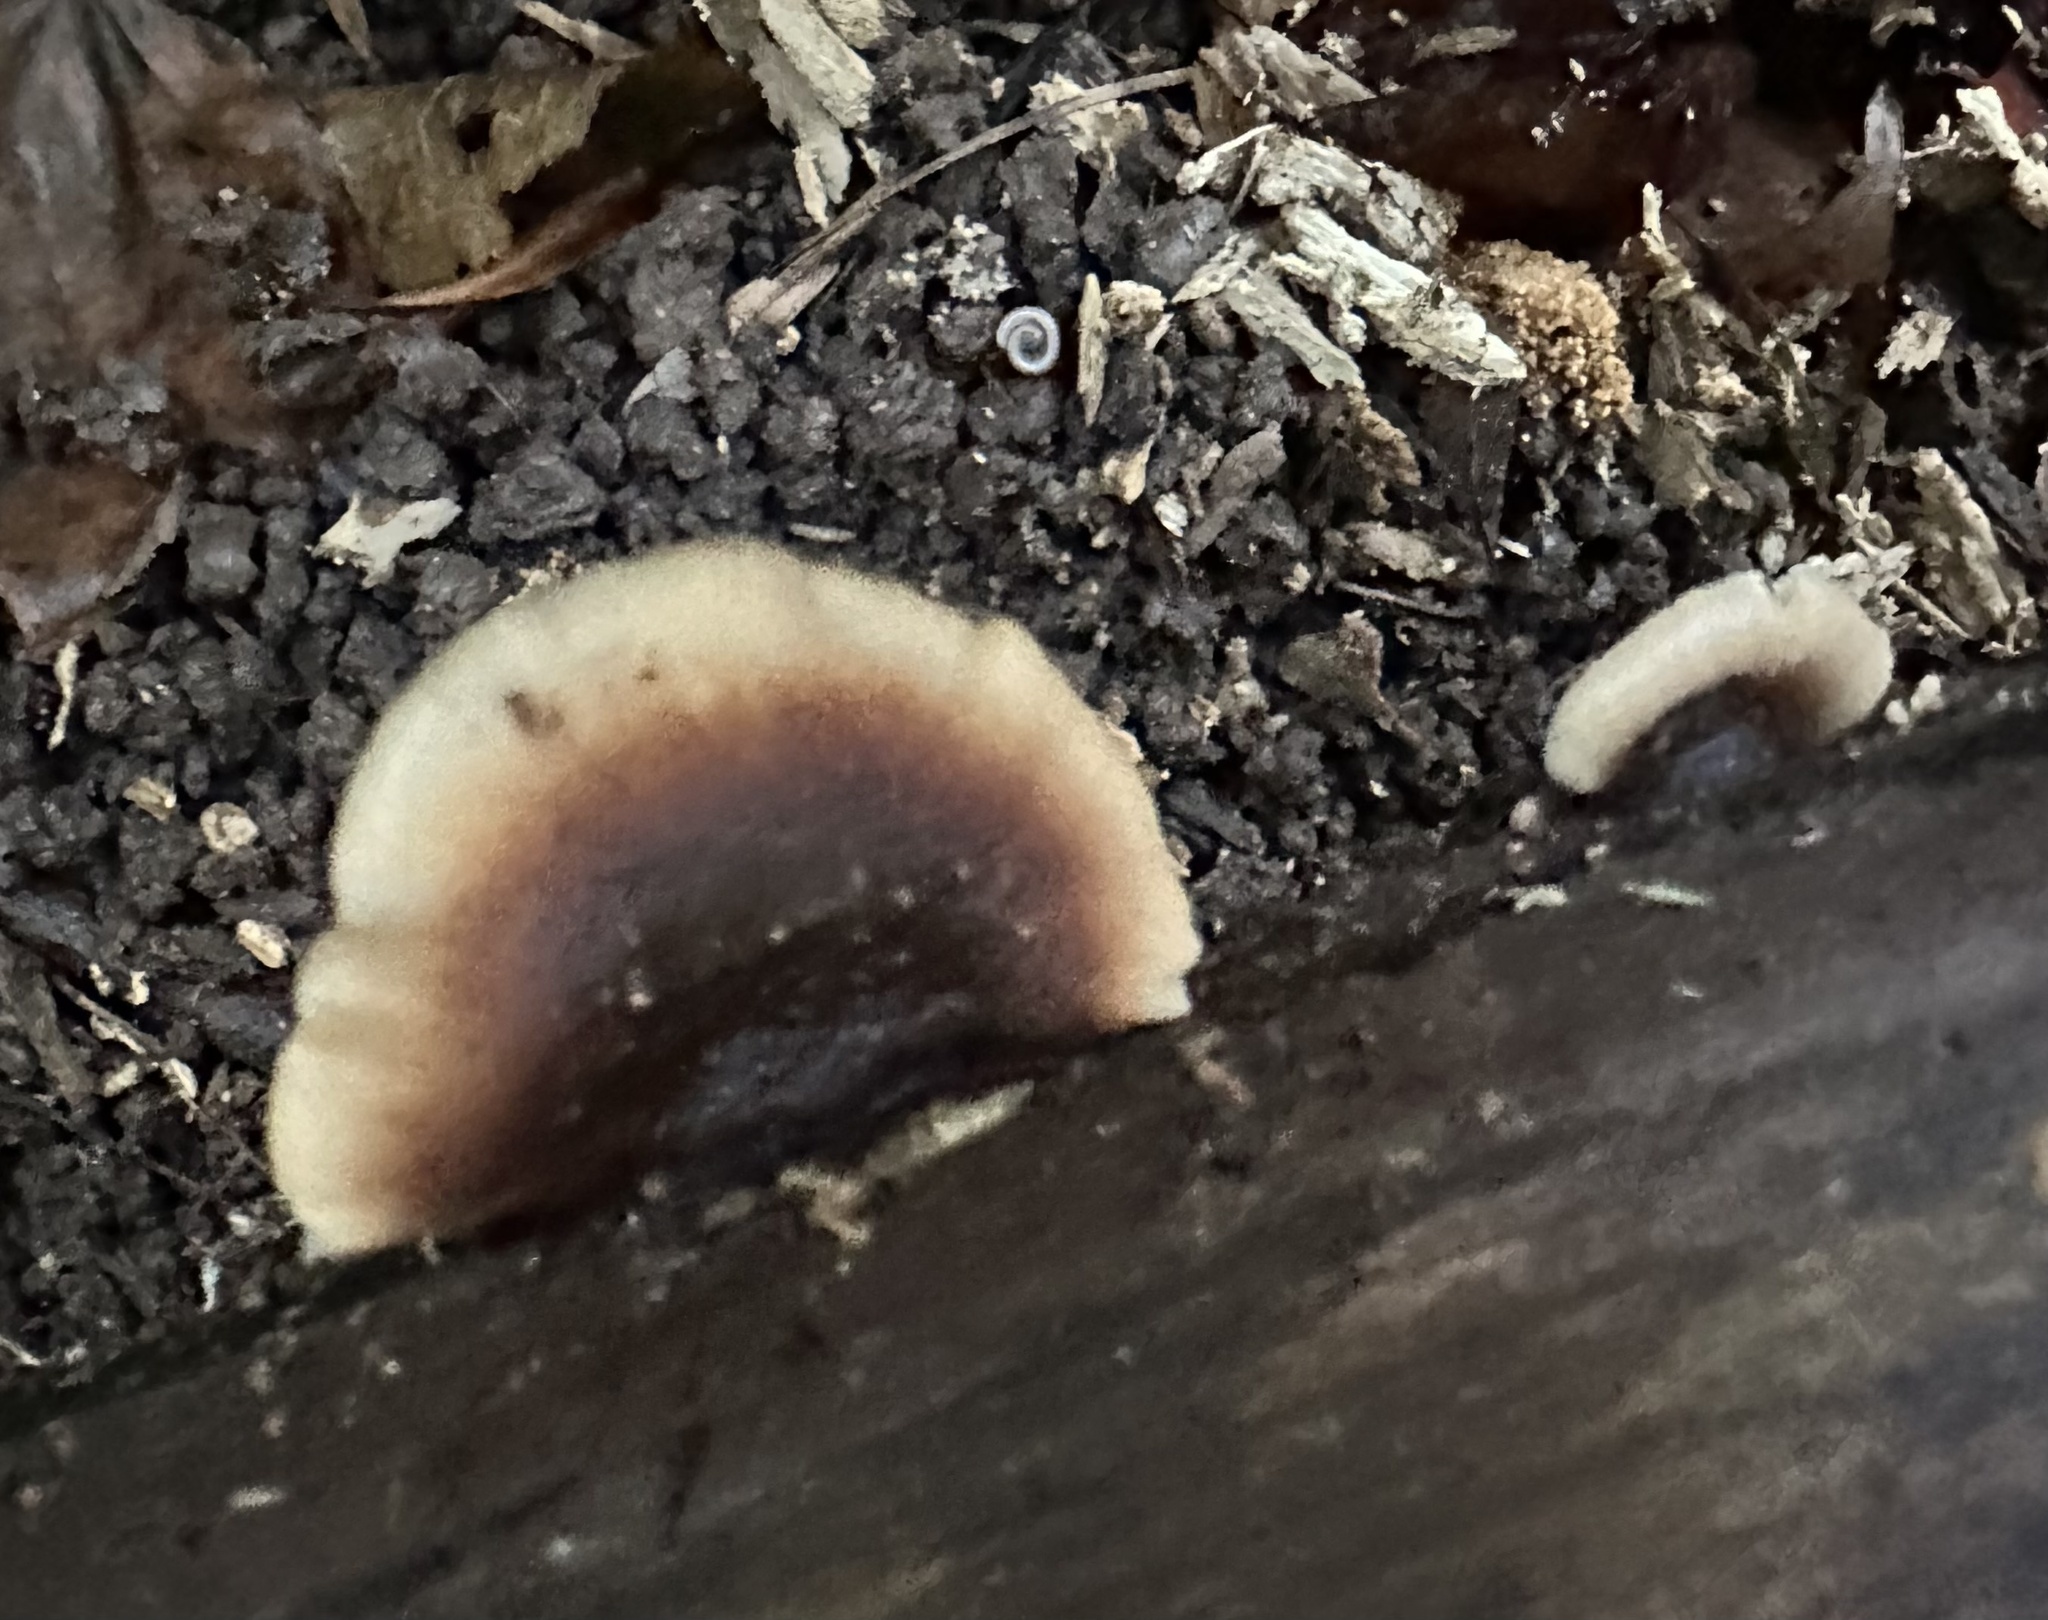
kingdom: Fungi
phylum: Basidiomycota
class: Agaricomycetes
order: Russulales
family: Auriscalpiaceae
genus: Lentinellus
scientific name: Lentinellus ursinus
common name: Bear lentinus
